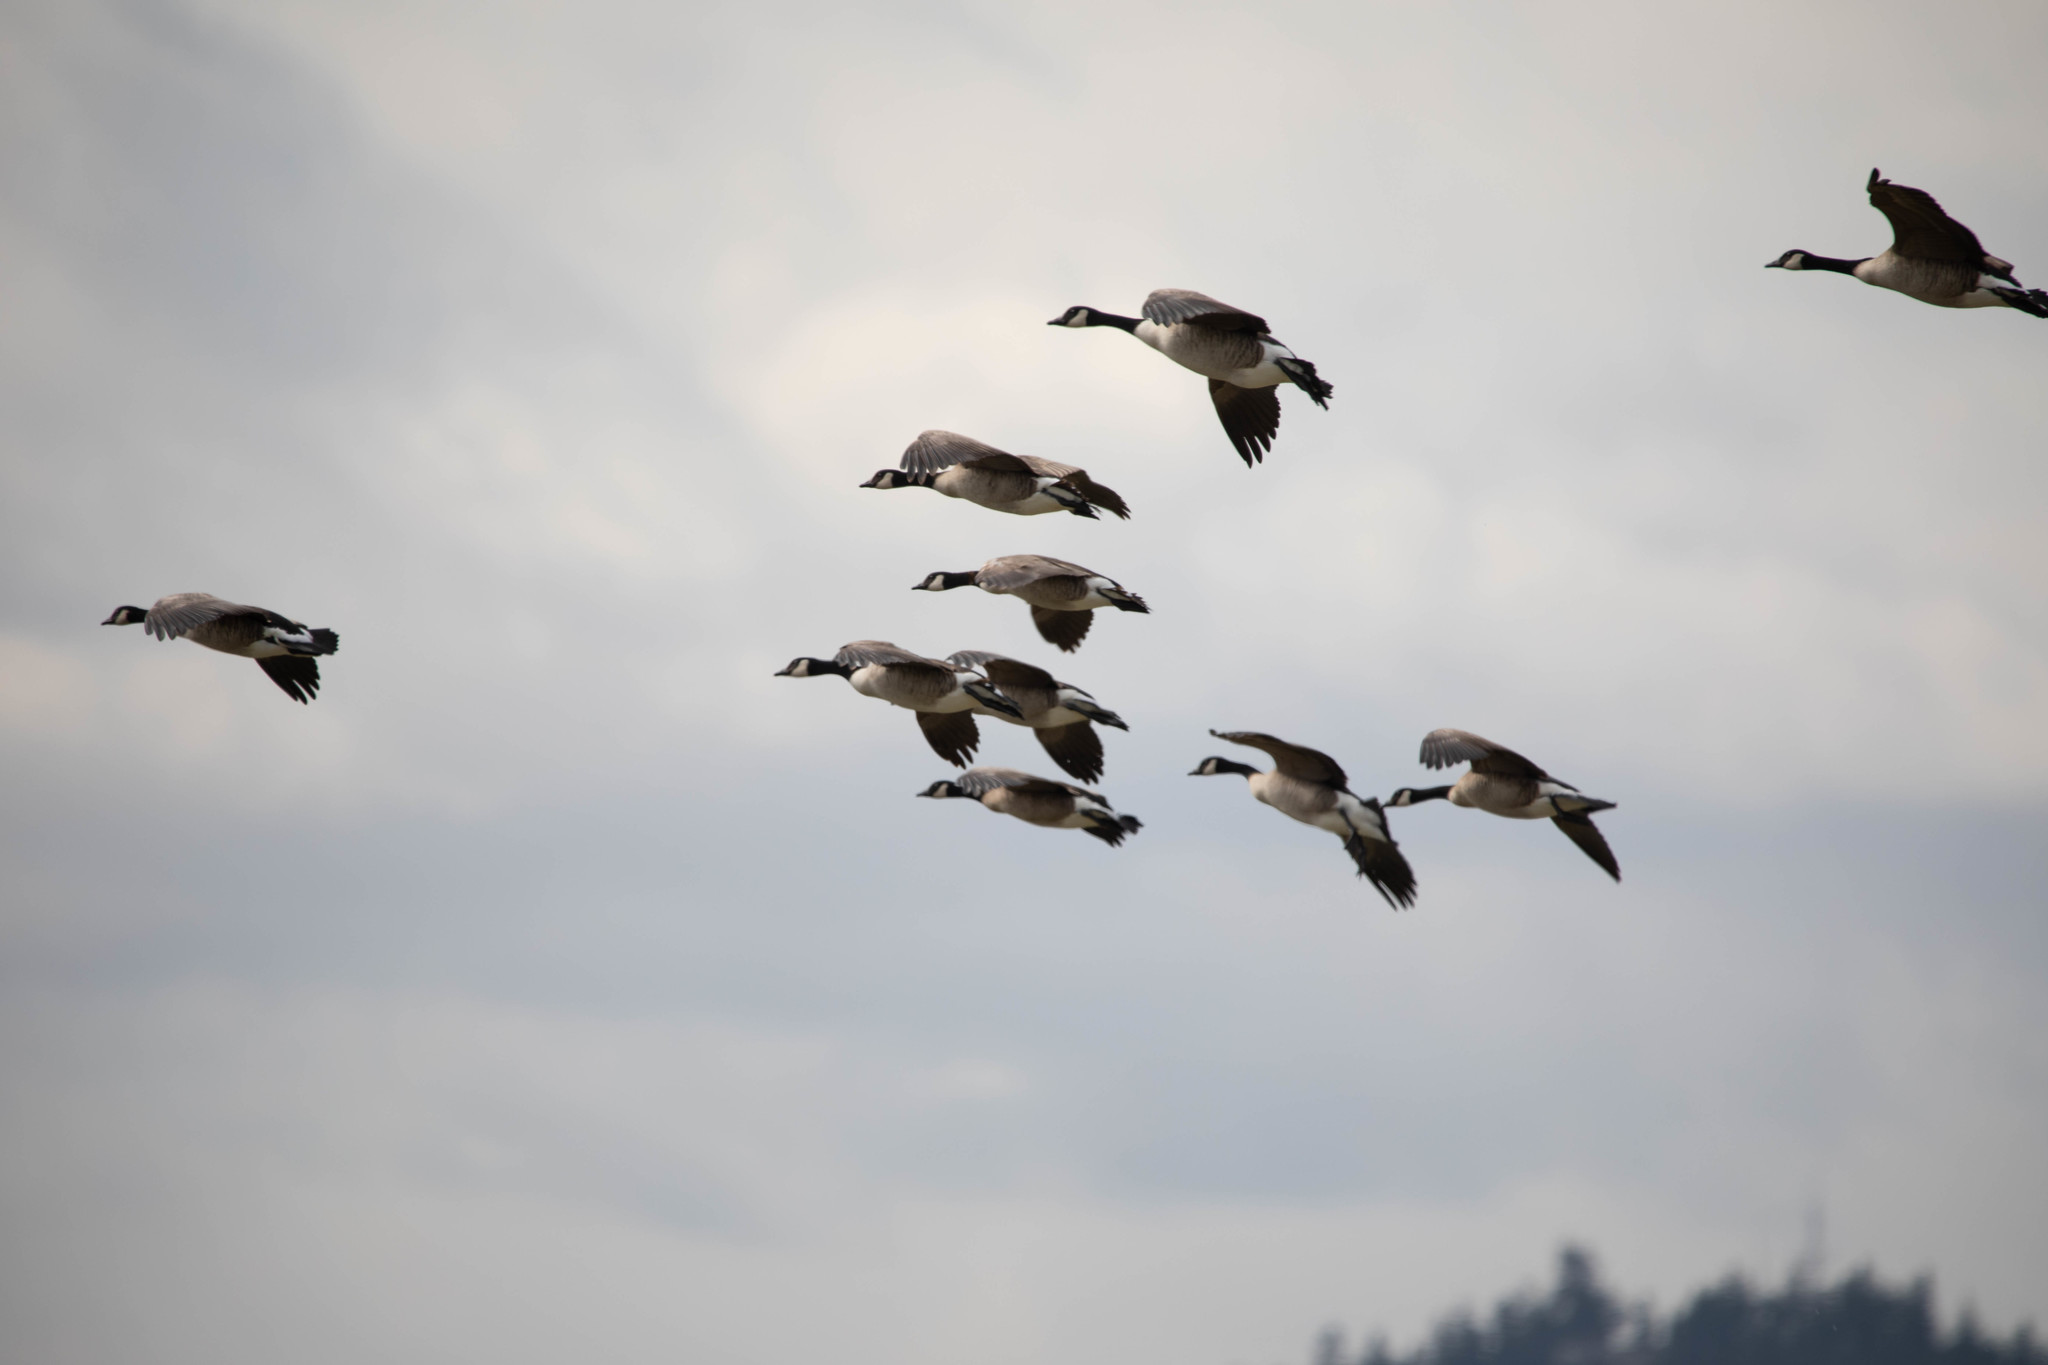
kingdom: Animalia
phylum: Chordata
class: Aves
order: Anseriformes
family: Anatidae
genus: Branta
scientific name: Branta canadensis
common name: Canada goose
